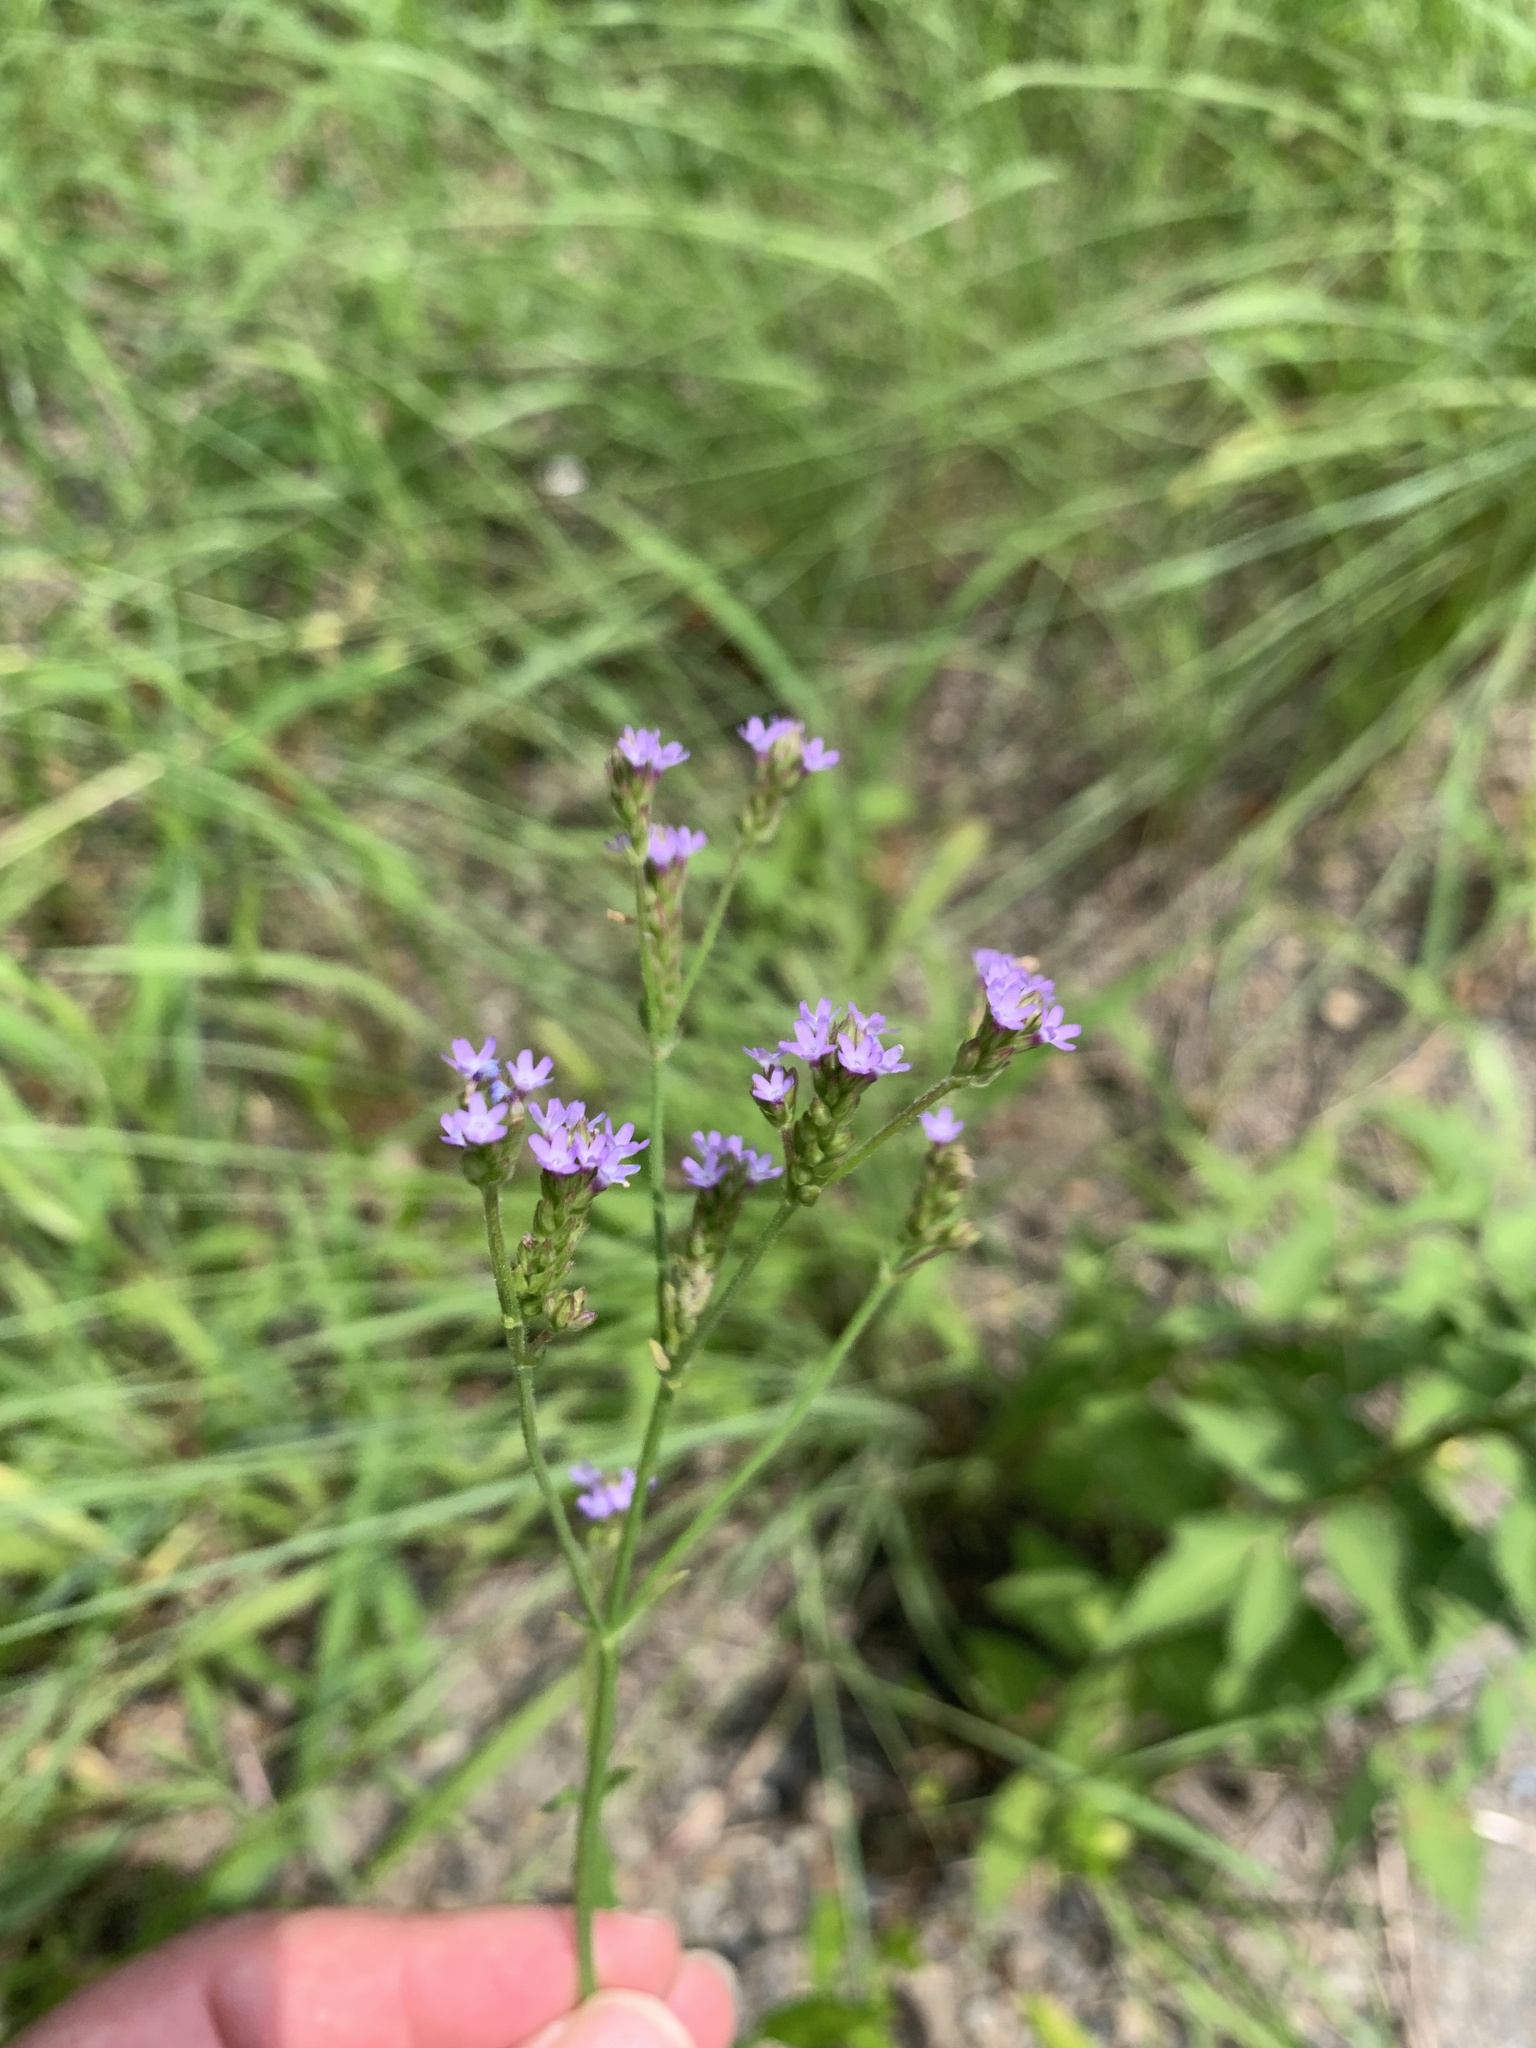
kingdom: Plantae
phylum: Tracheophyta
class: Magnoliopsida
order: Lamiales
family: Verbenaceae
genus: Verbena
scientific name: Verbena brasiliensis
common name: Brazilian vervain
